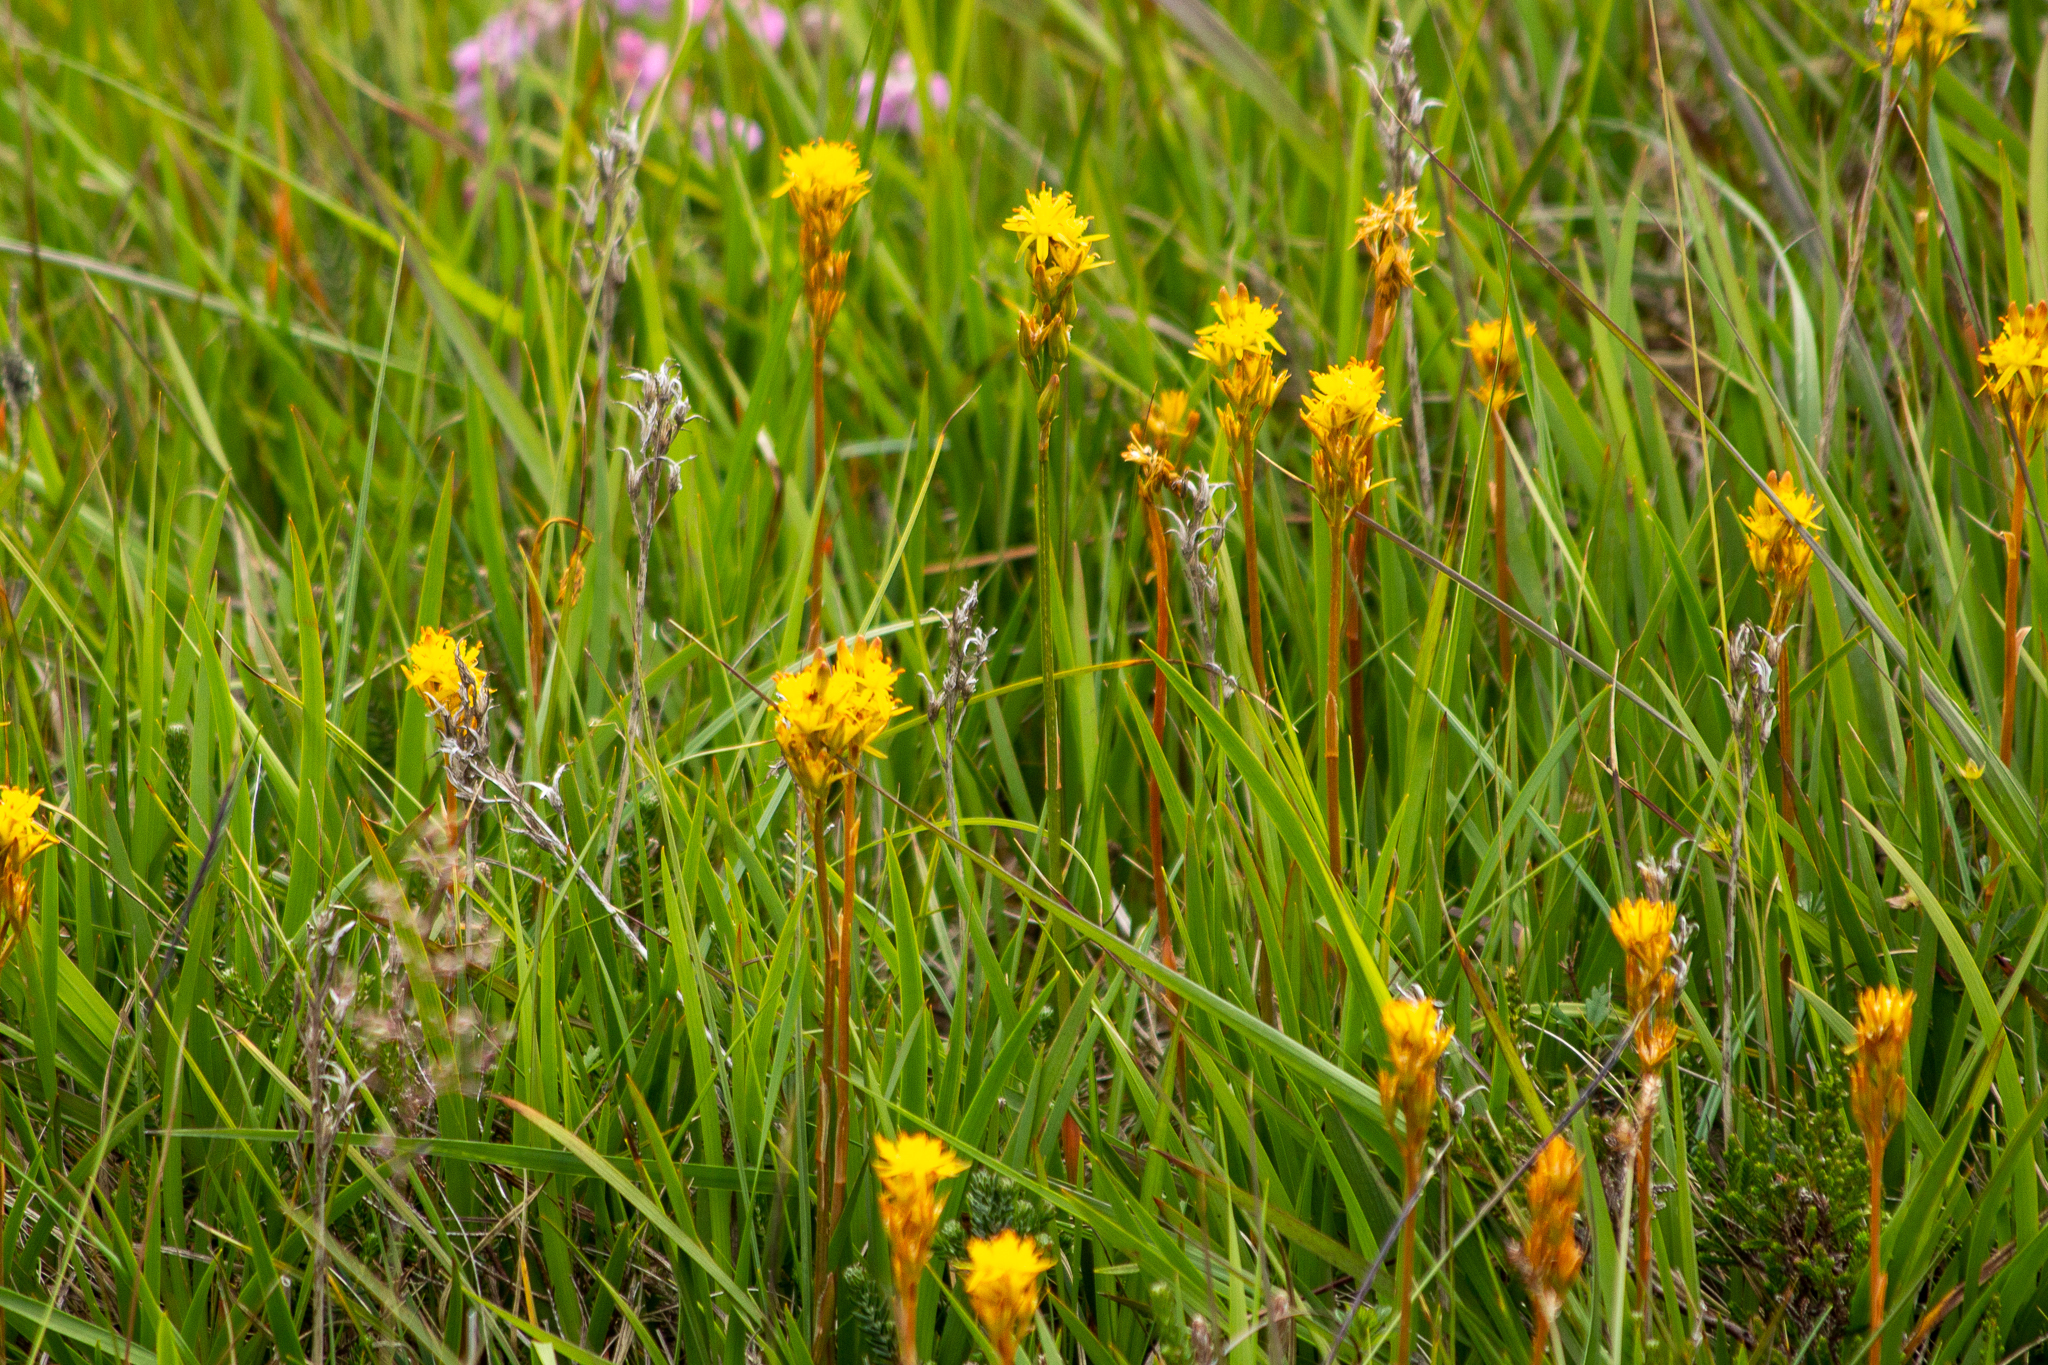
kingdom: Plantae
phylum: Tracheophyta
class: Liliopsida
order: Dioscoreales
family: Nartheciaceae
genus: Narthecium
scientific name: Narthecium ossifragum
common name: Bog asphodel
